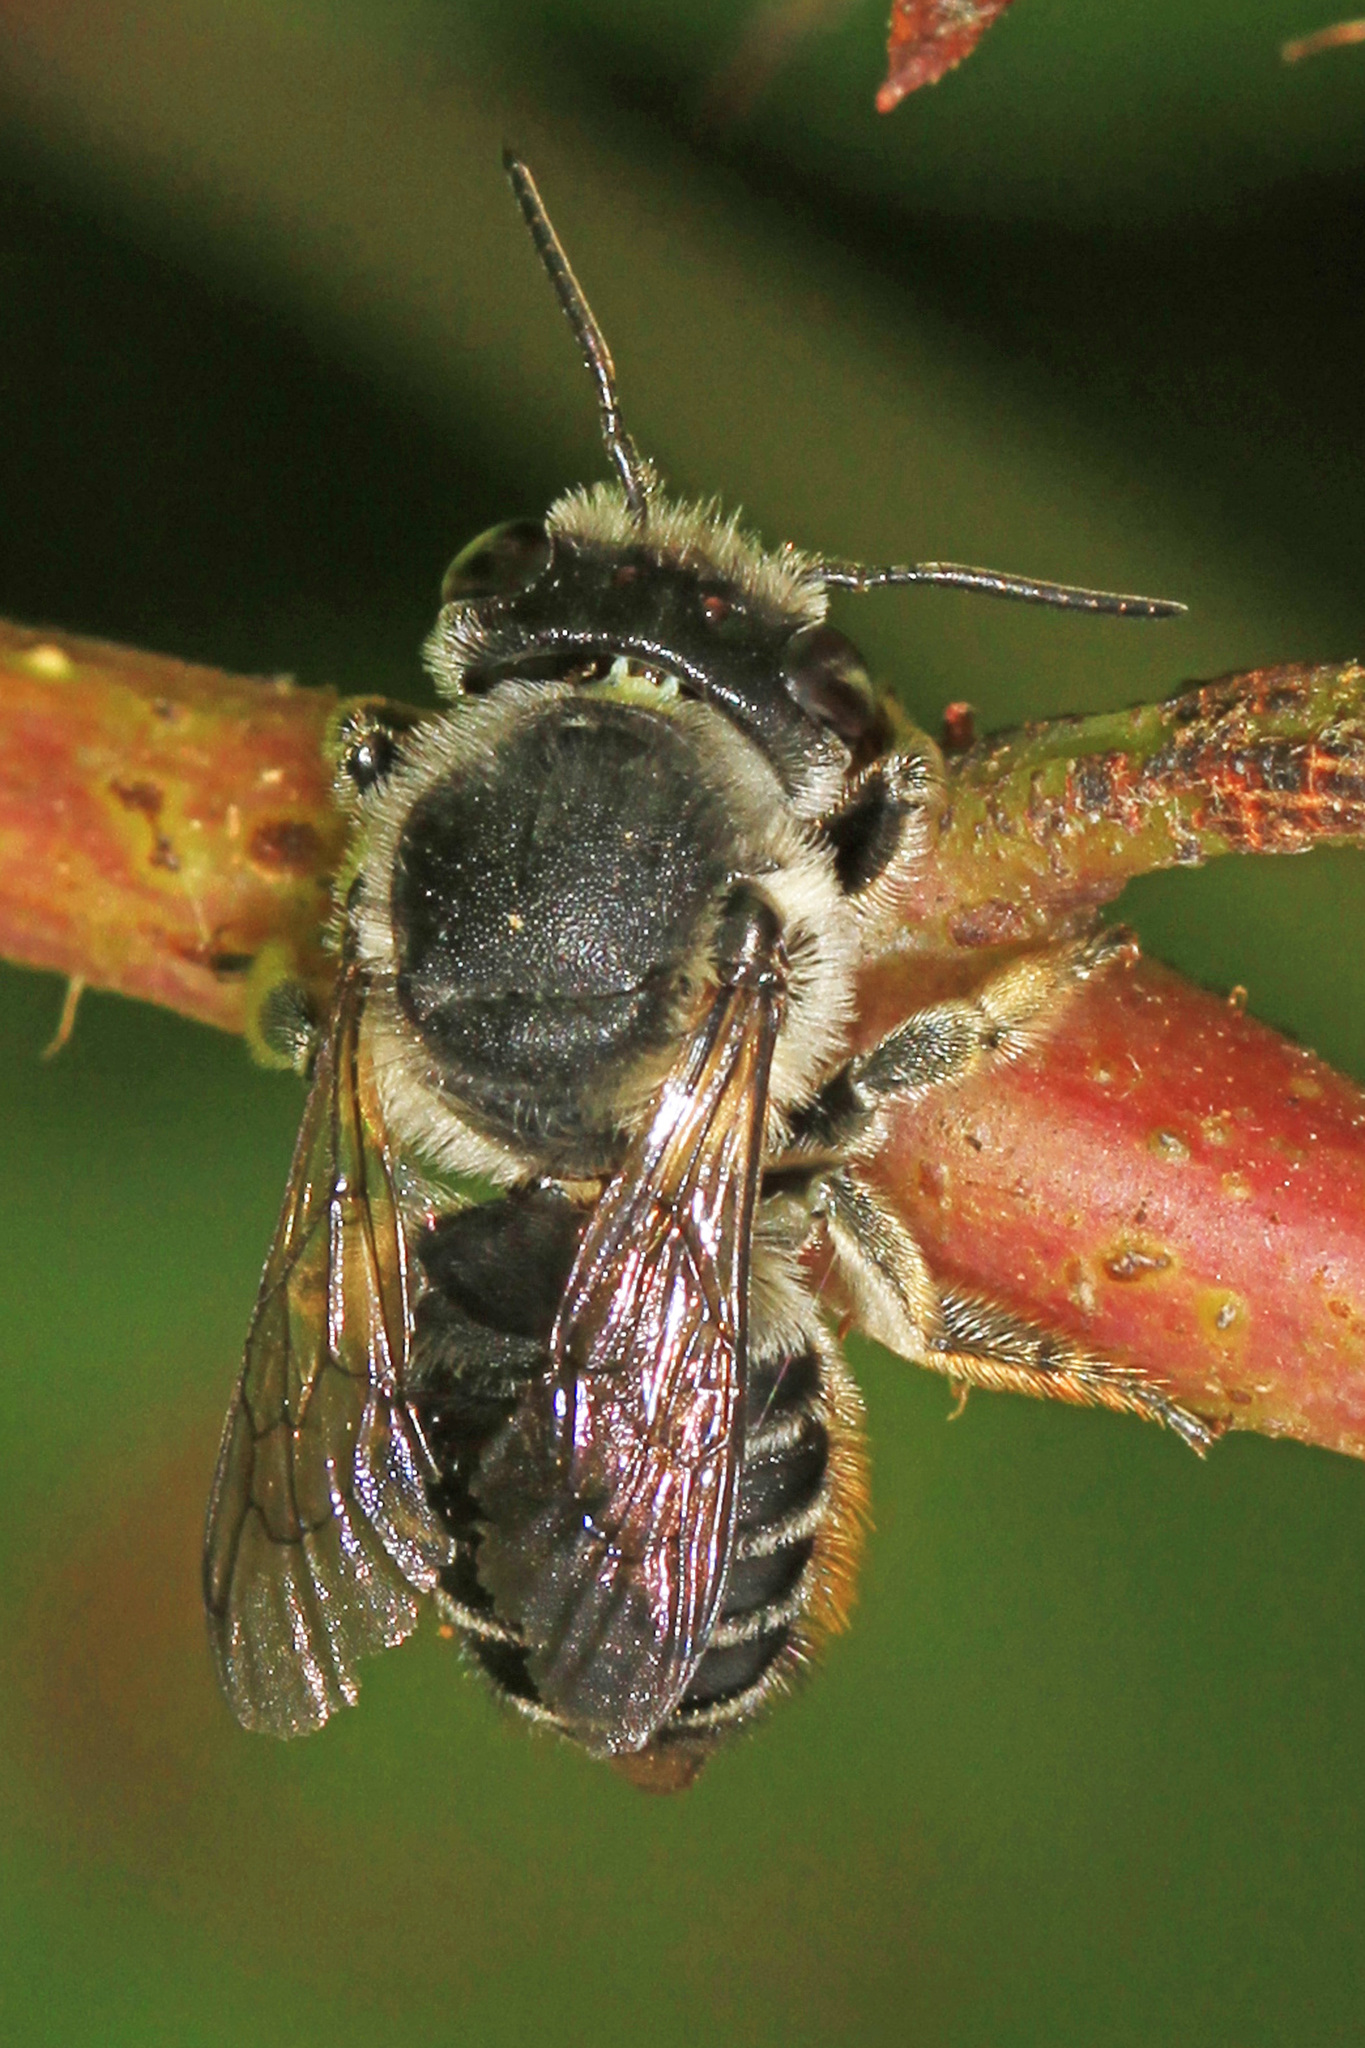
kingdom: Animalia
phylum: Arthropoda
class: Insecta
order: Hymenoptera
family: Megachilidae
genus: Megachile
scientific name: Megachile mendica
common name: Flat-tailed leafcutter
